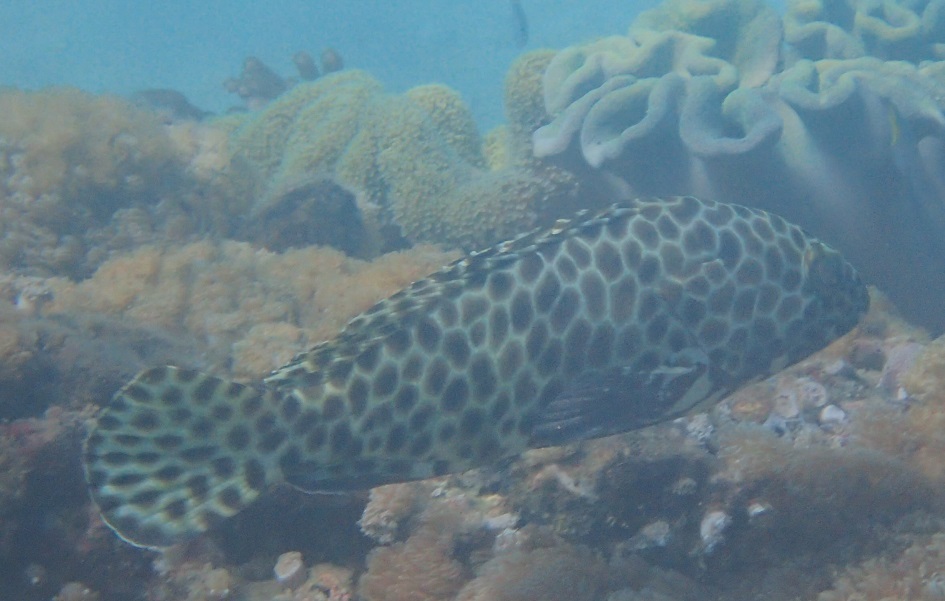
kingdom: Animalia
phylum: Chordata
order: Perciformes
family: Serranidae
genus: Epinephelus
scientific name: Epinephelus quoyanus
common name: Longfin grouper
